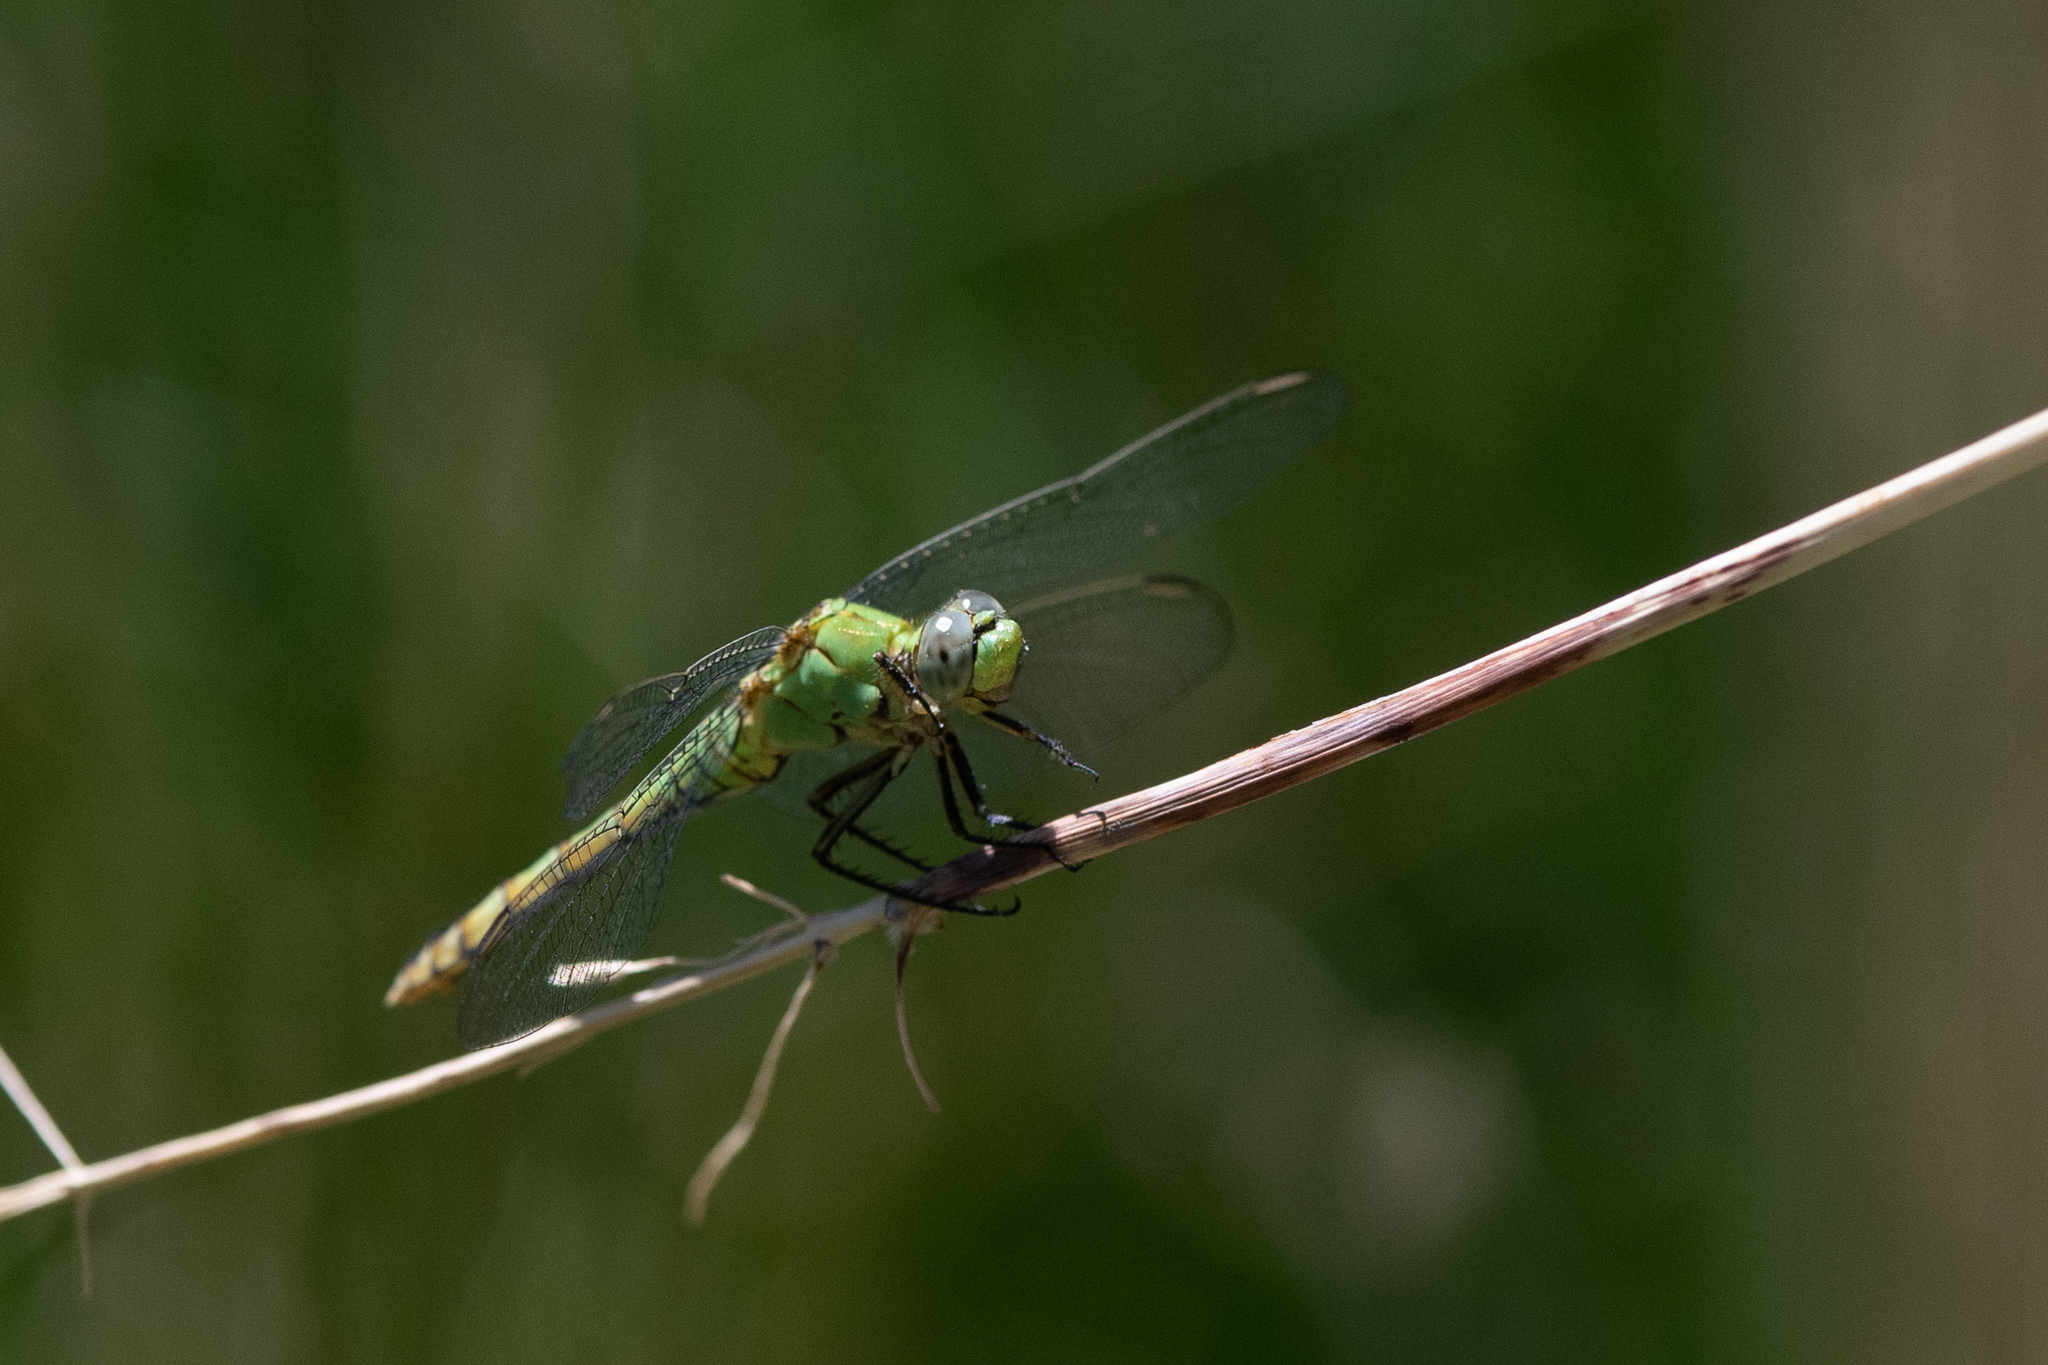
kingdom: Animalia
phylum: Arthropoda
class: Insecta
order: Odonata
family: Libellulidae
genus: Erythemis
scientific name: Erythemis collocata
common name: Western pondhawk
